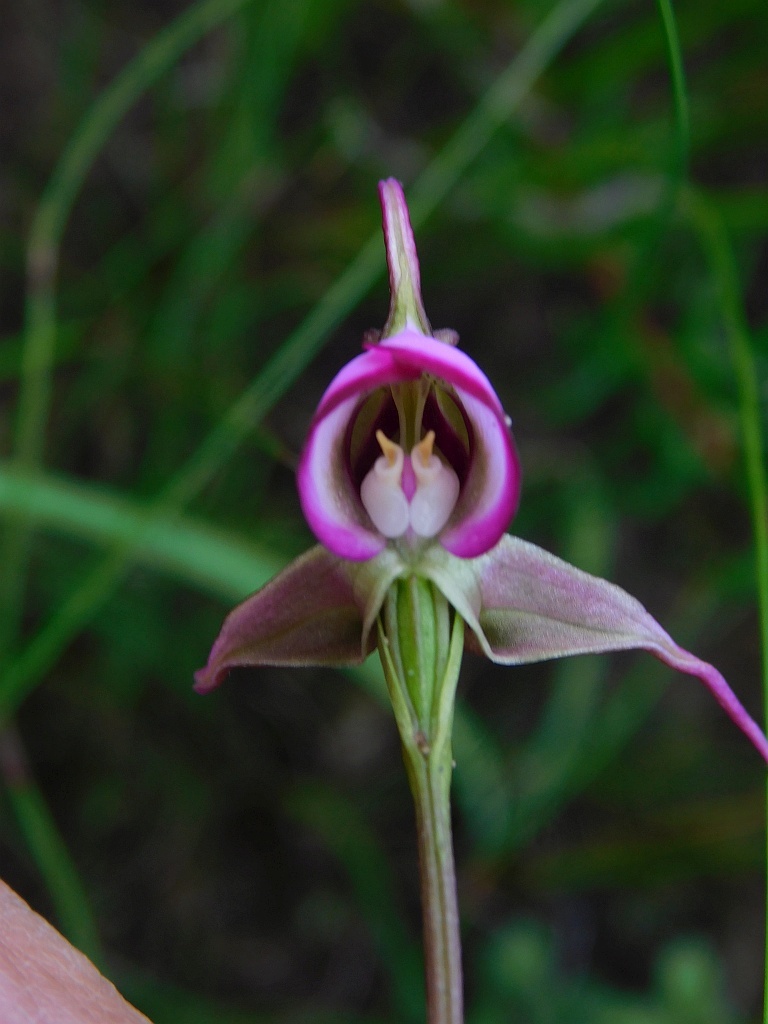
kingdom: Plantae
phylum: Tracheophyta
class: Liliopsida
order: Asparagales
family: Orchidaceae
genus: Disperis
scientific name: Disperis capensis
